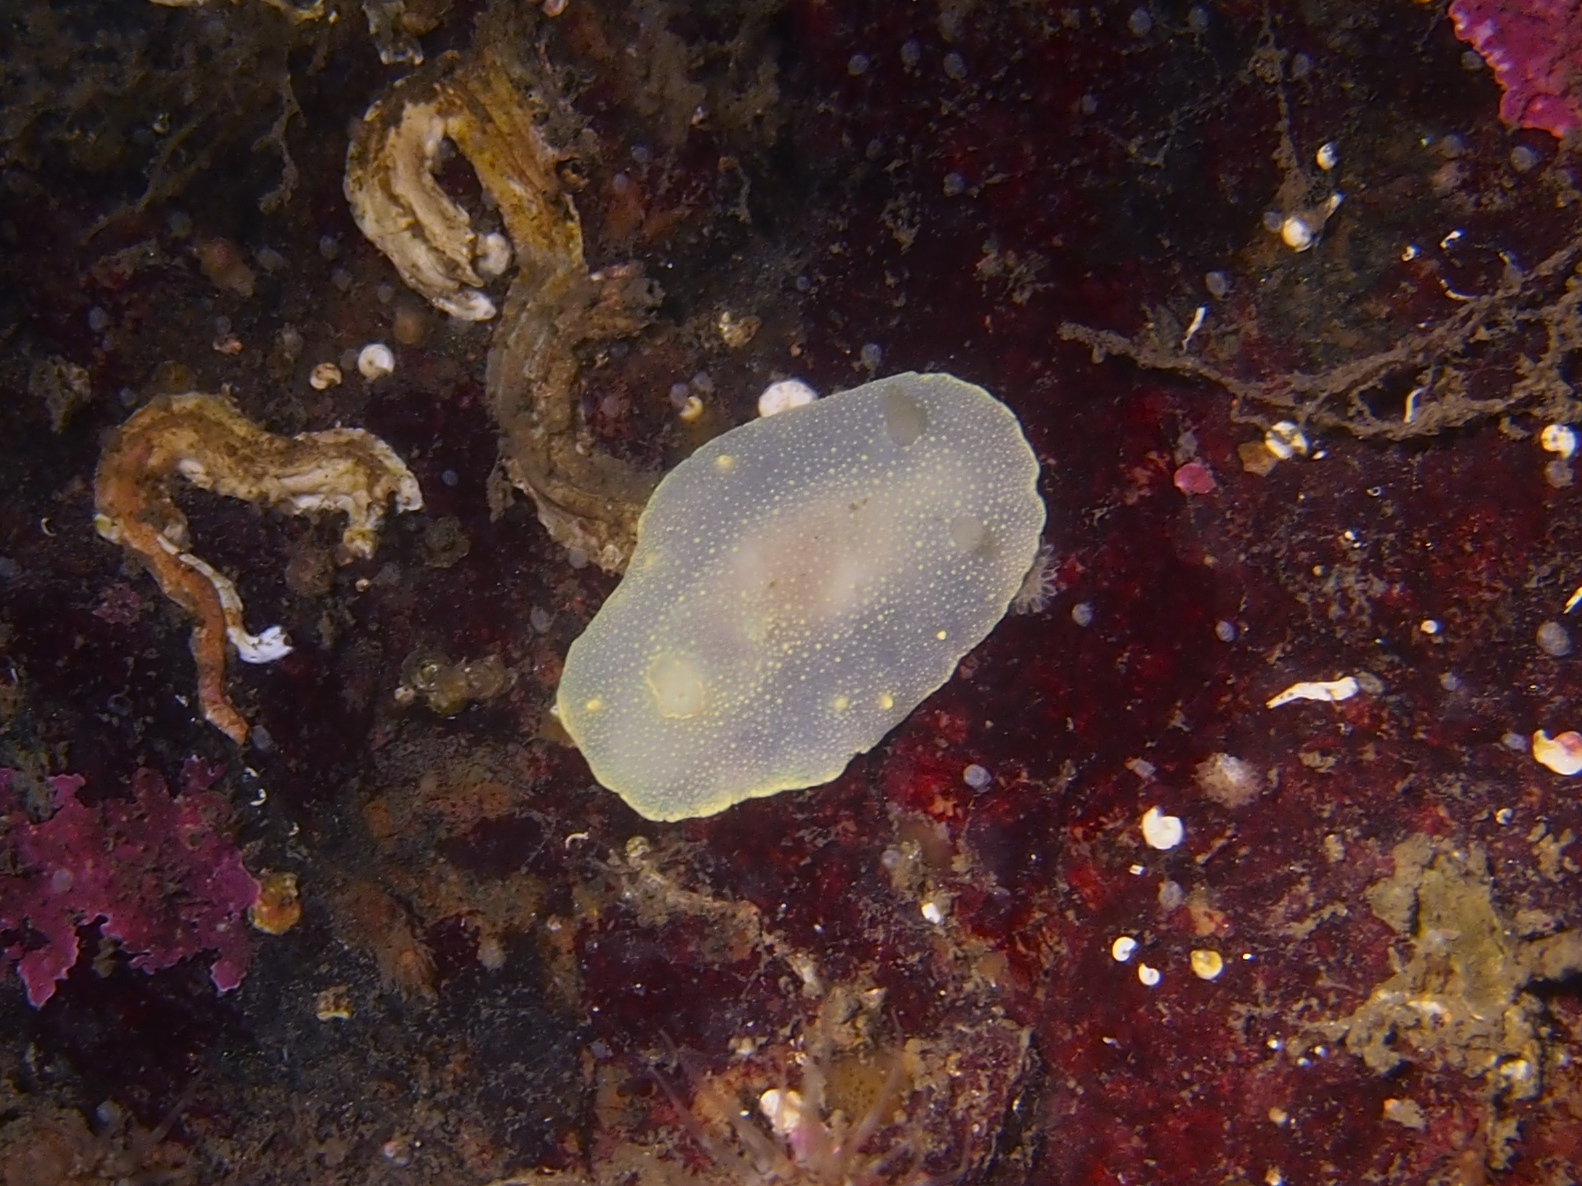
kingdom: Animalia
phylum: Mollusca
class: Gastropoda
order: Nudibranchia
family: Cadlinidae
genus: Cadlina
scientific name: Cadlina laevis
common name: White atlantic cadlina
